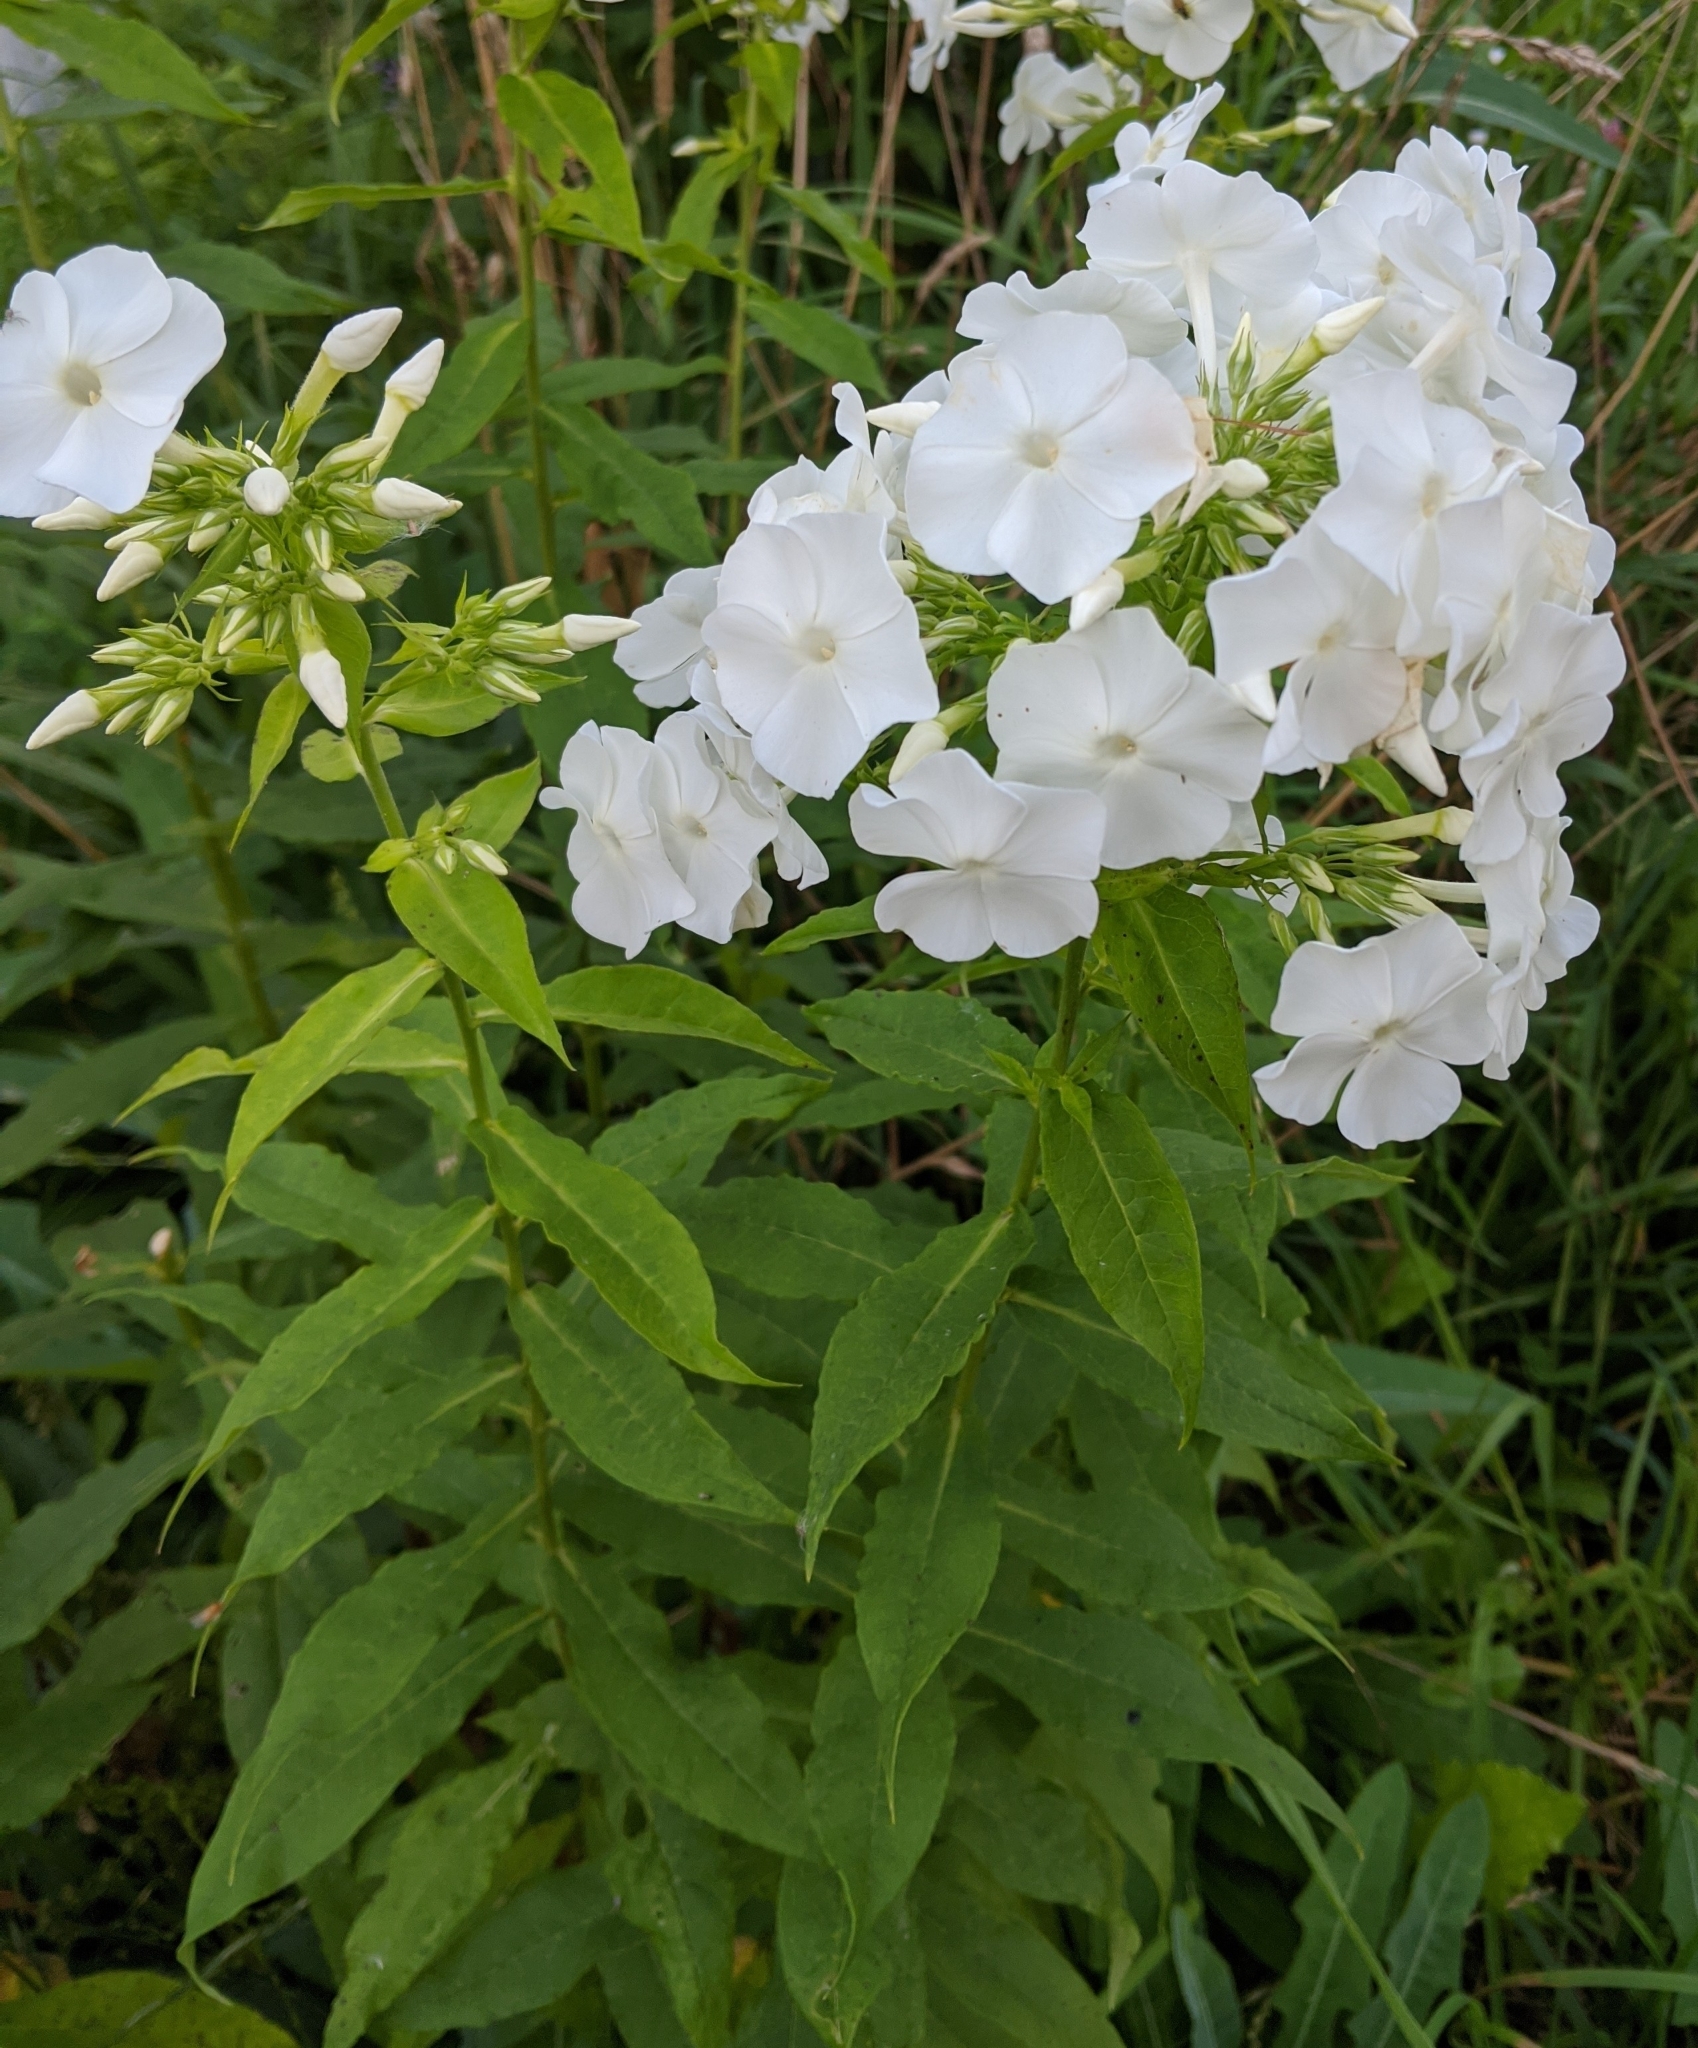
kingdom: Plantae
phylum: Tracheophyta
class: Magnoliopsida
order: Ericales
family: Polemoniaceae
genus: Phlox
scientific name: Phlox paniculata
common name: Fall phlox
